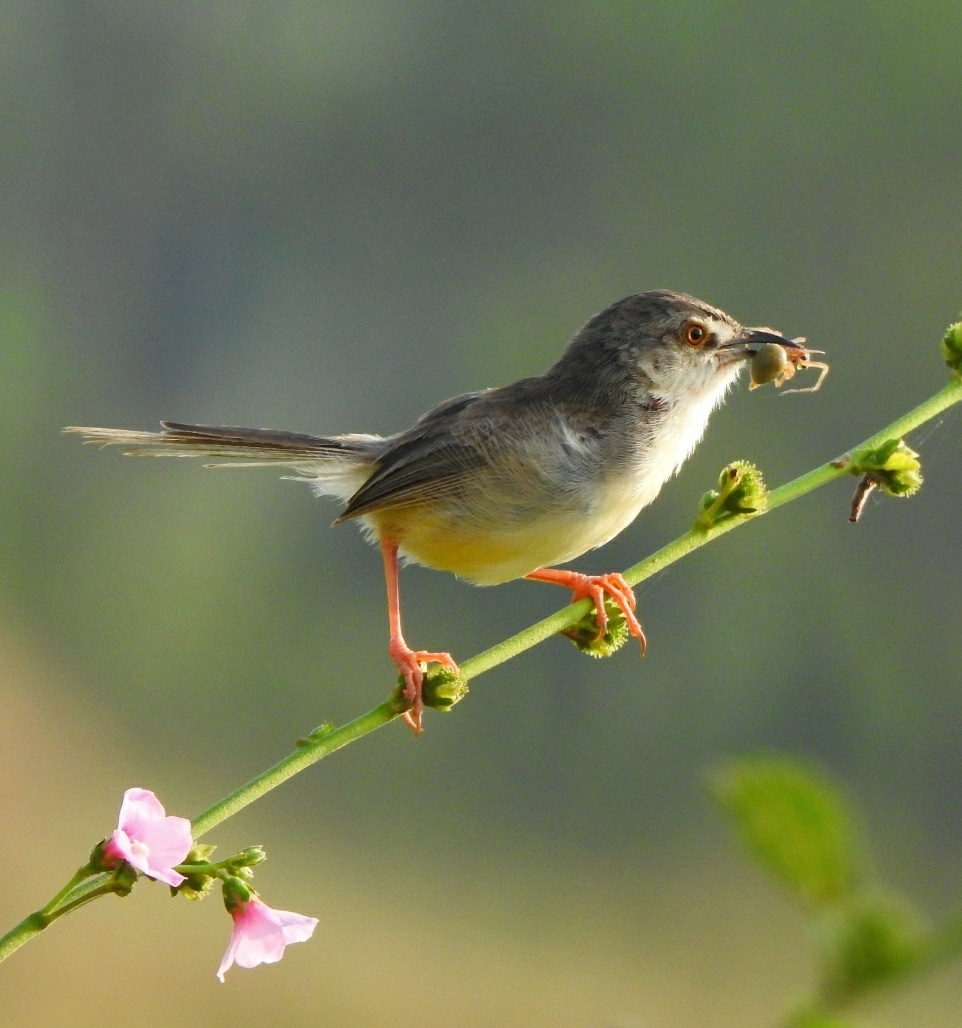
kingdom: Animalia
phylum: Chordata
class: Aves
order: Passeriformes
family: Cisticolidae
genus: Prinia
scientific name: Prinia inornata
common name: Plain prinia
